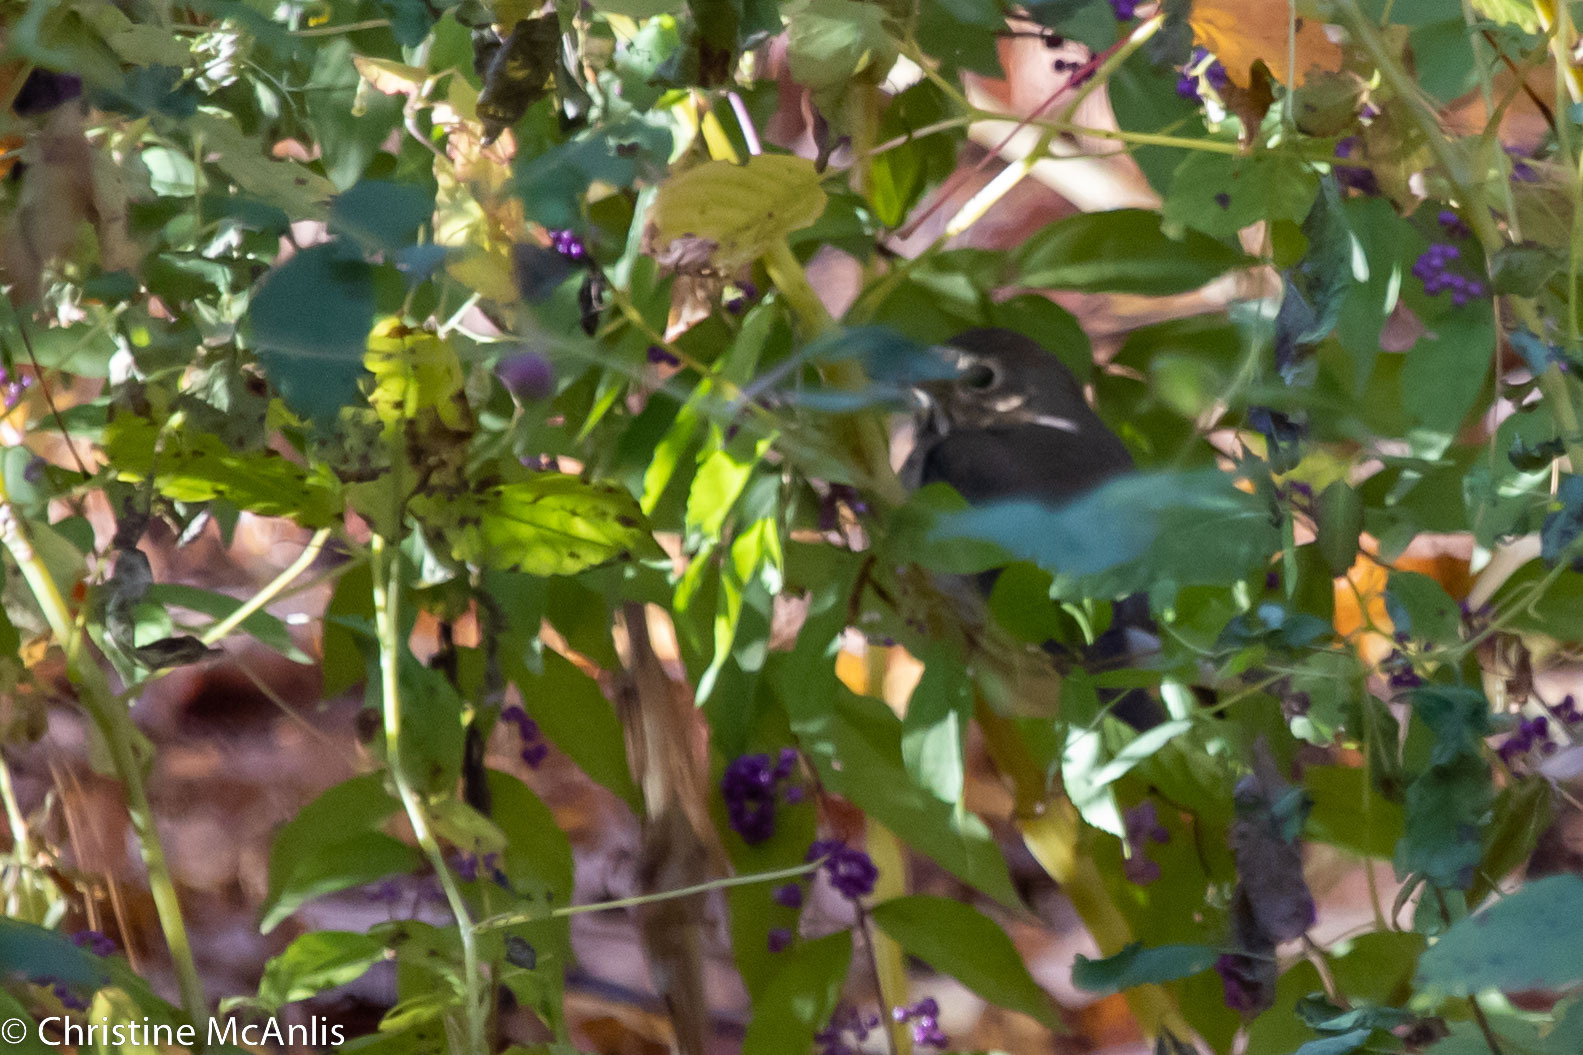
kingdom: Animalia
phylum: Chordata
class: Aves
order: Passeriformes
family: Turdidae
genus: Catharus
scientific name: Catharus ustulatus
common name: Swainson's thrush
